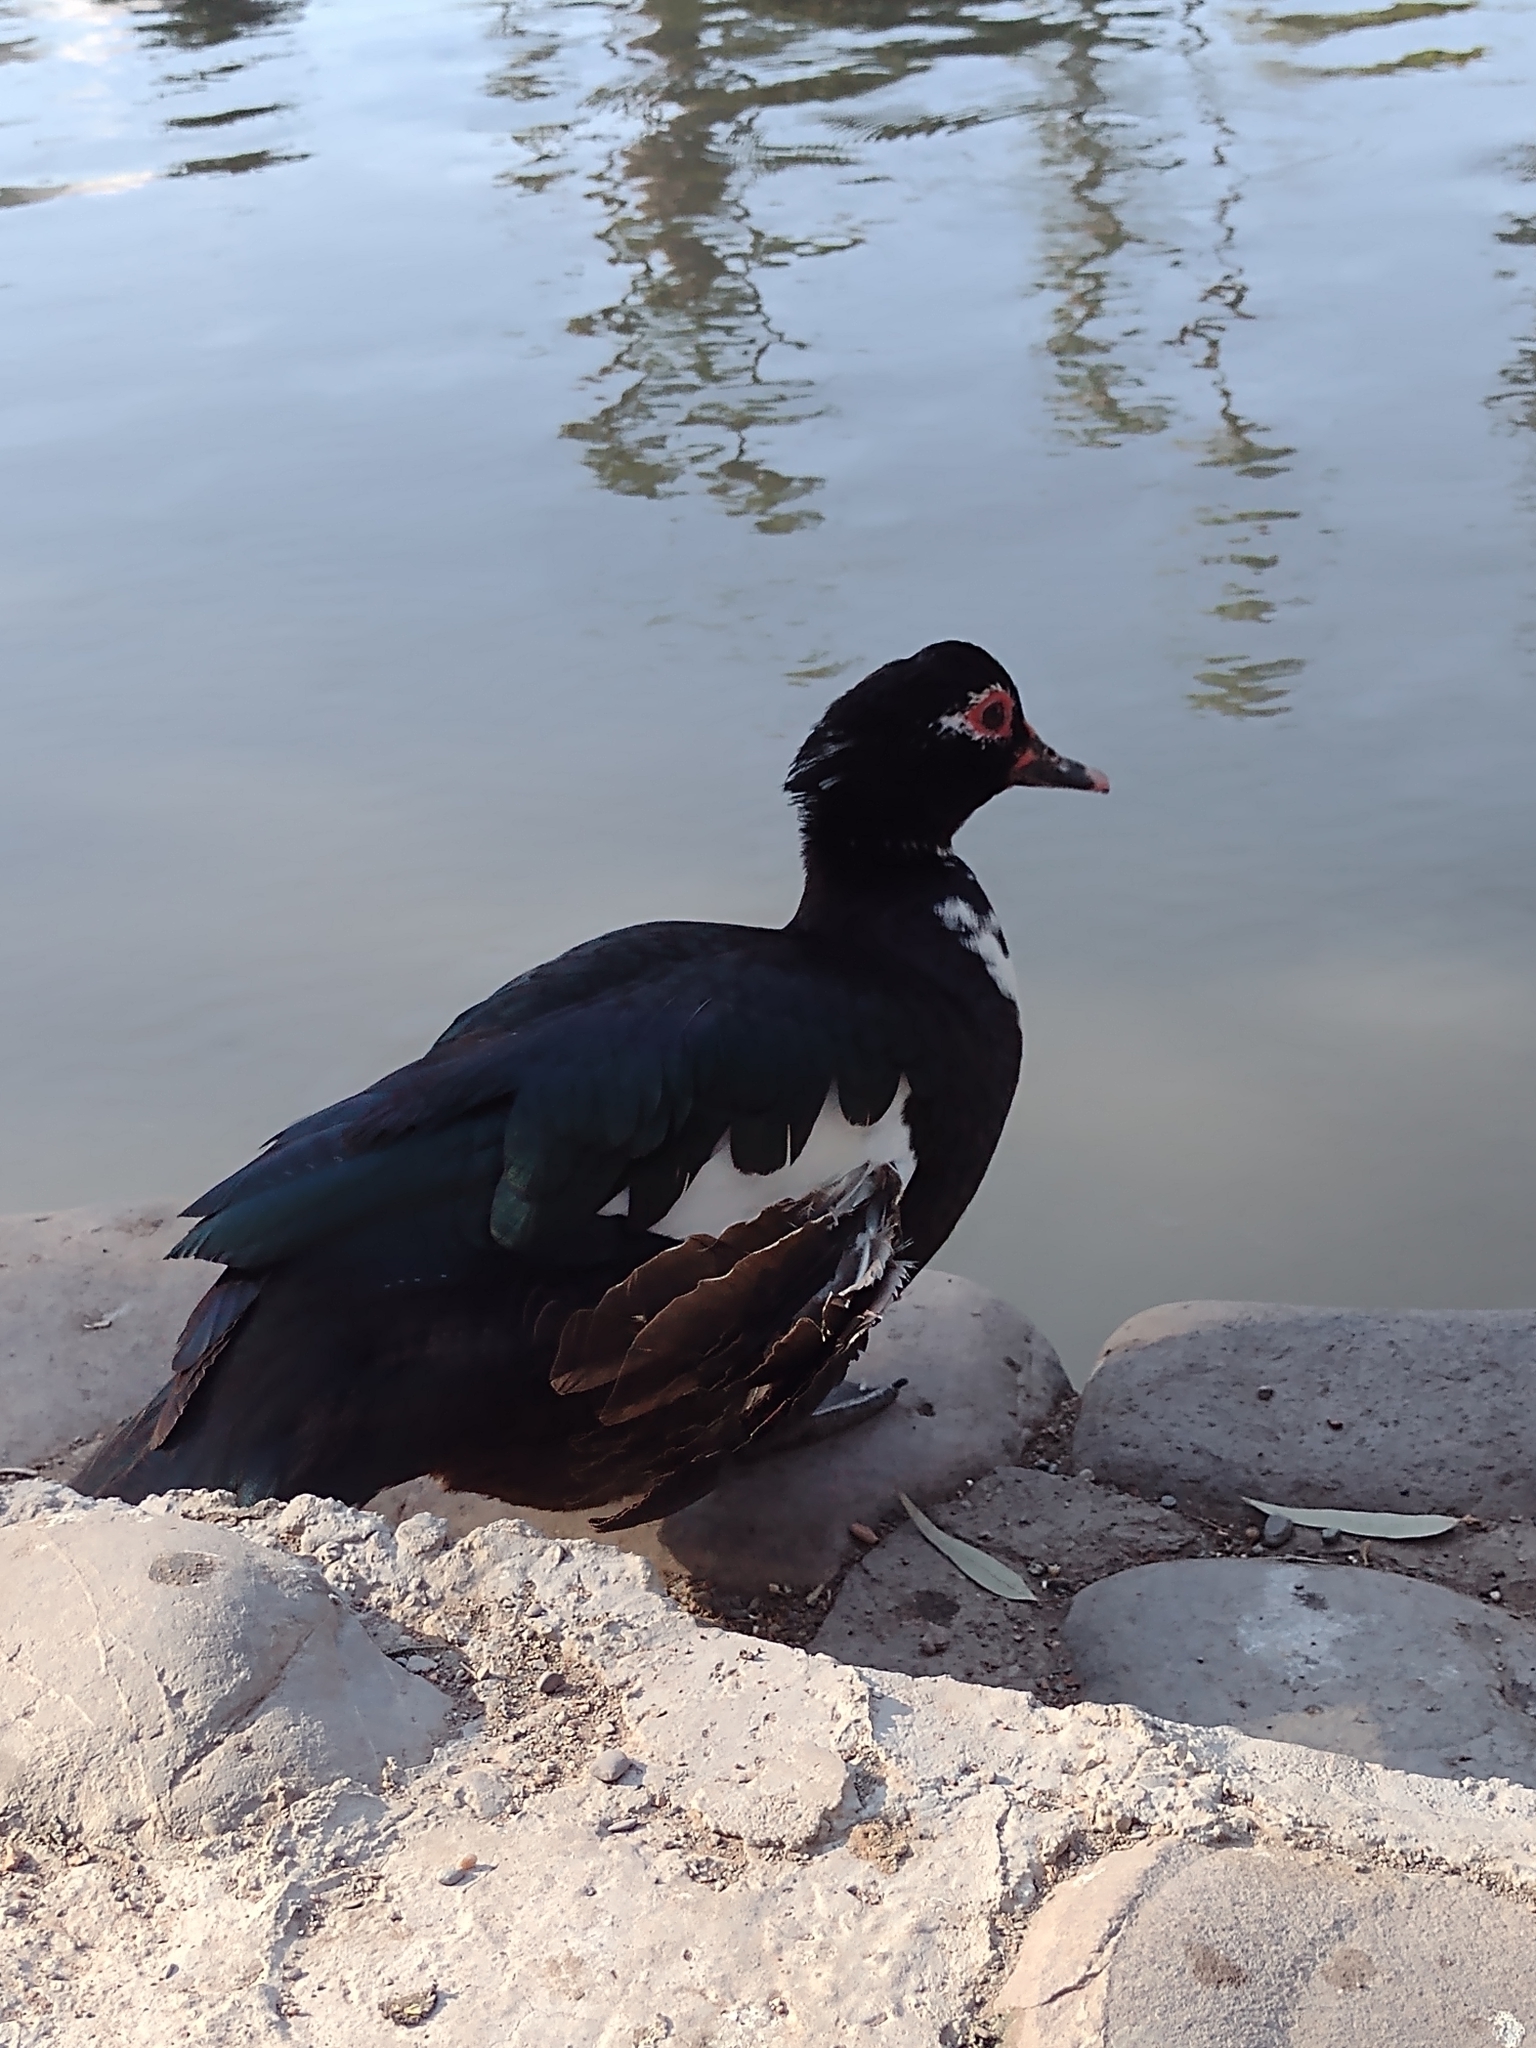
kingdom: Animalia
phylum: Chordata
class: Aves
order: Anseriformes
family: Anatidae
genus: Cairina
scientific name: Cairina moschata
